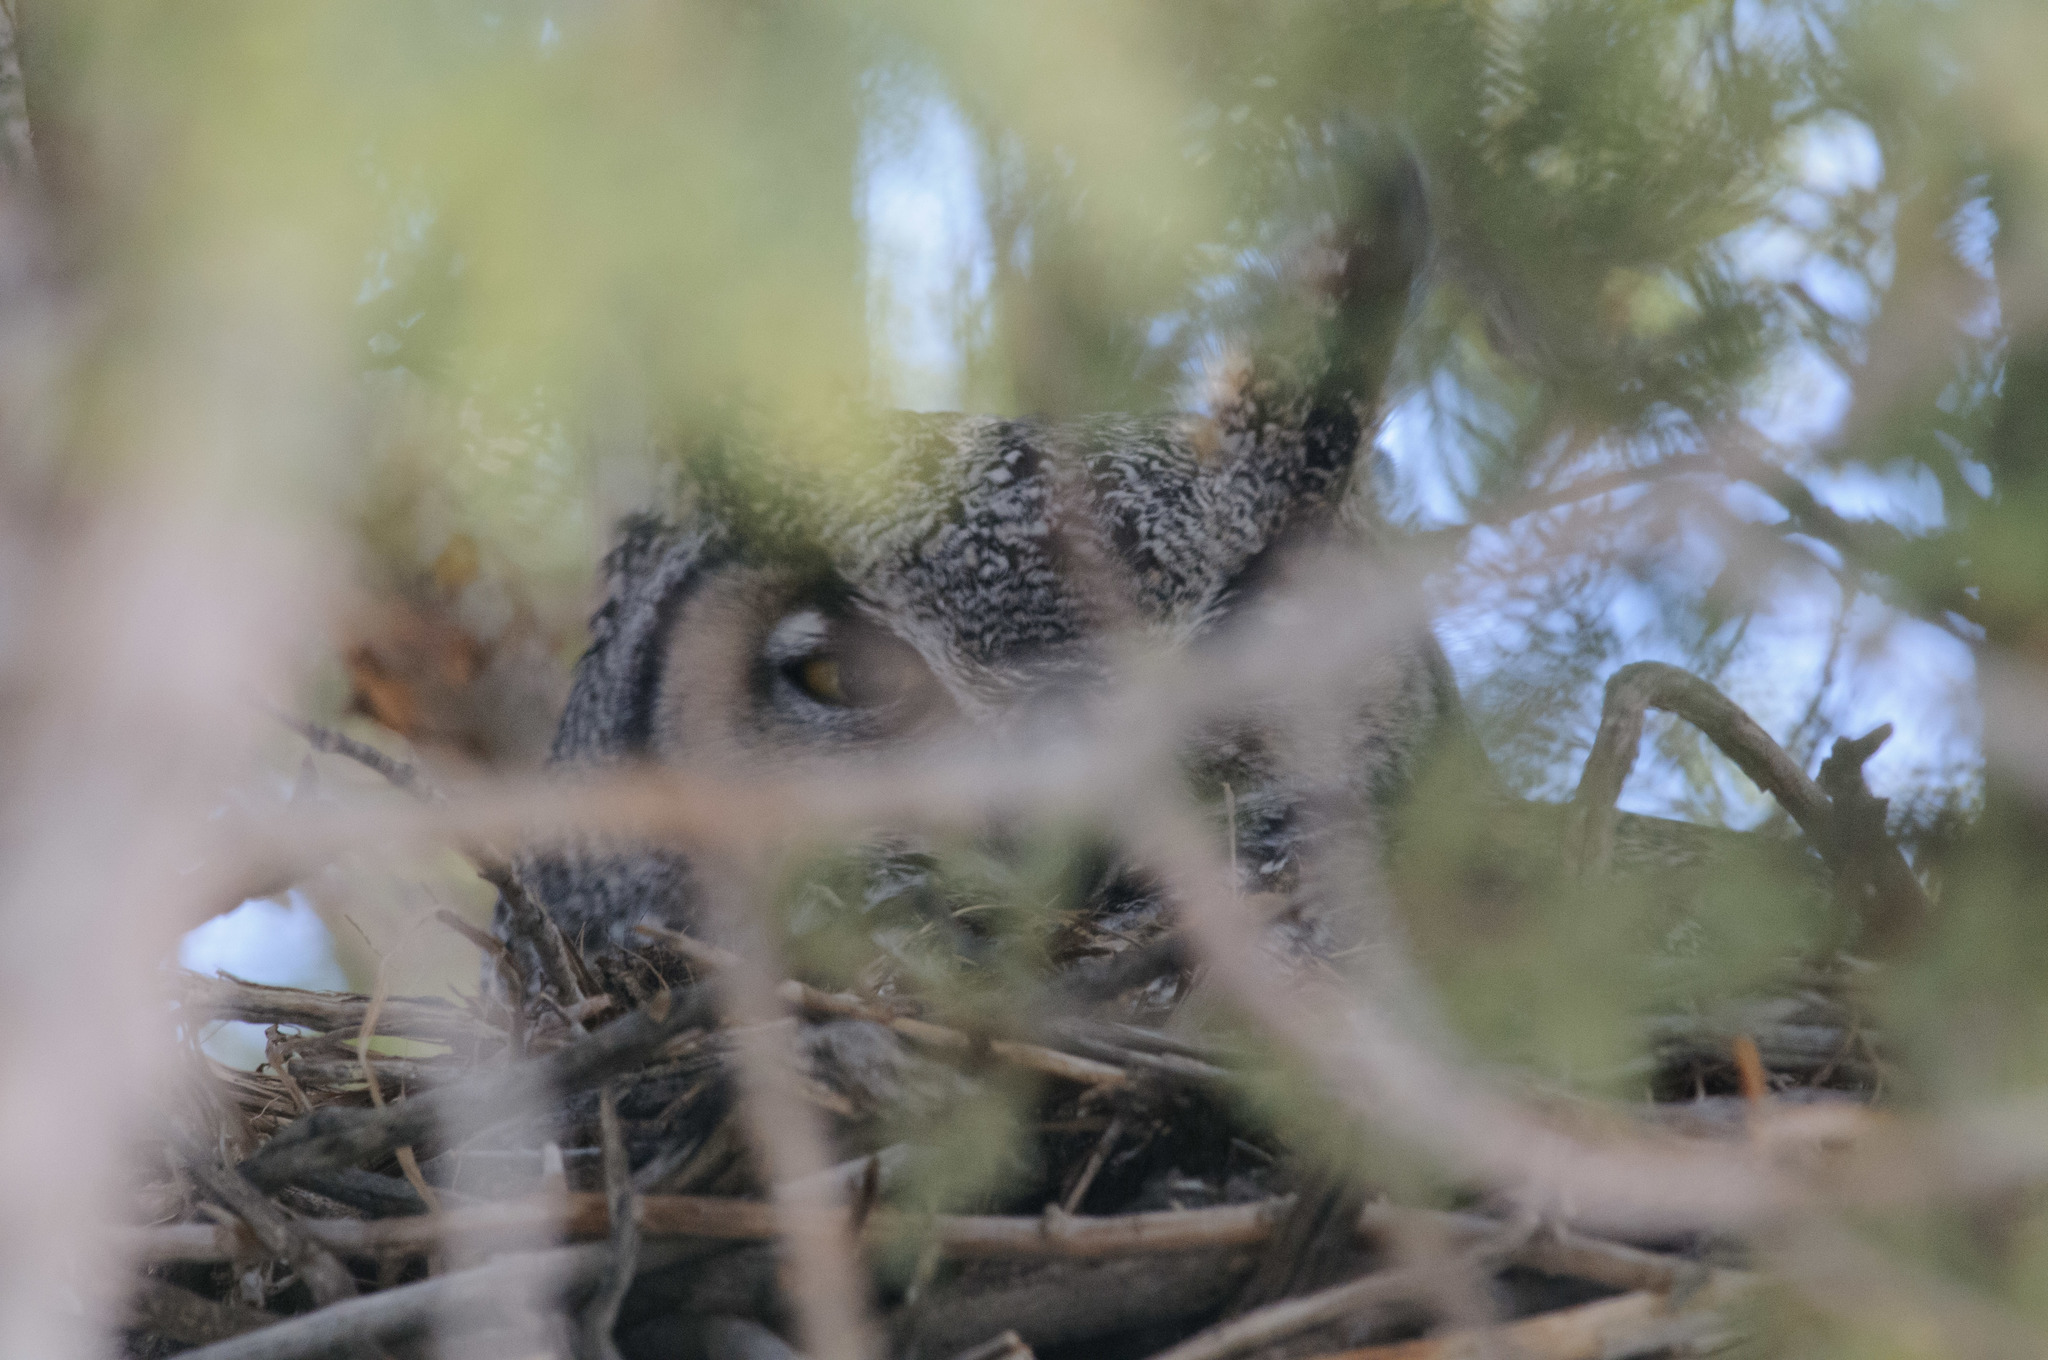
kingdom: Animalia
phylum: Chordata
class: Aves
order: Strigiformes
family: Strigidae
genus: Bubo
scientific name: Bubo virginianus
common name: Great horned owl
